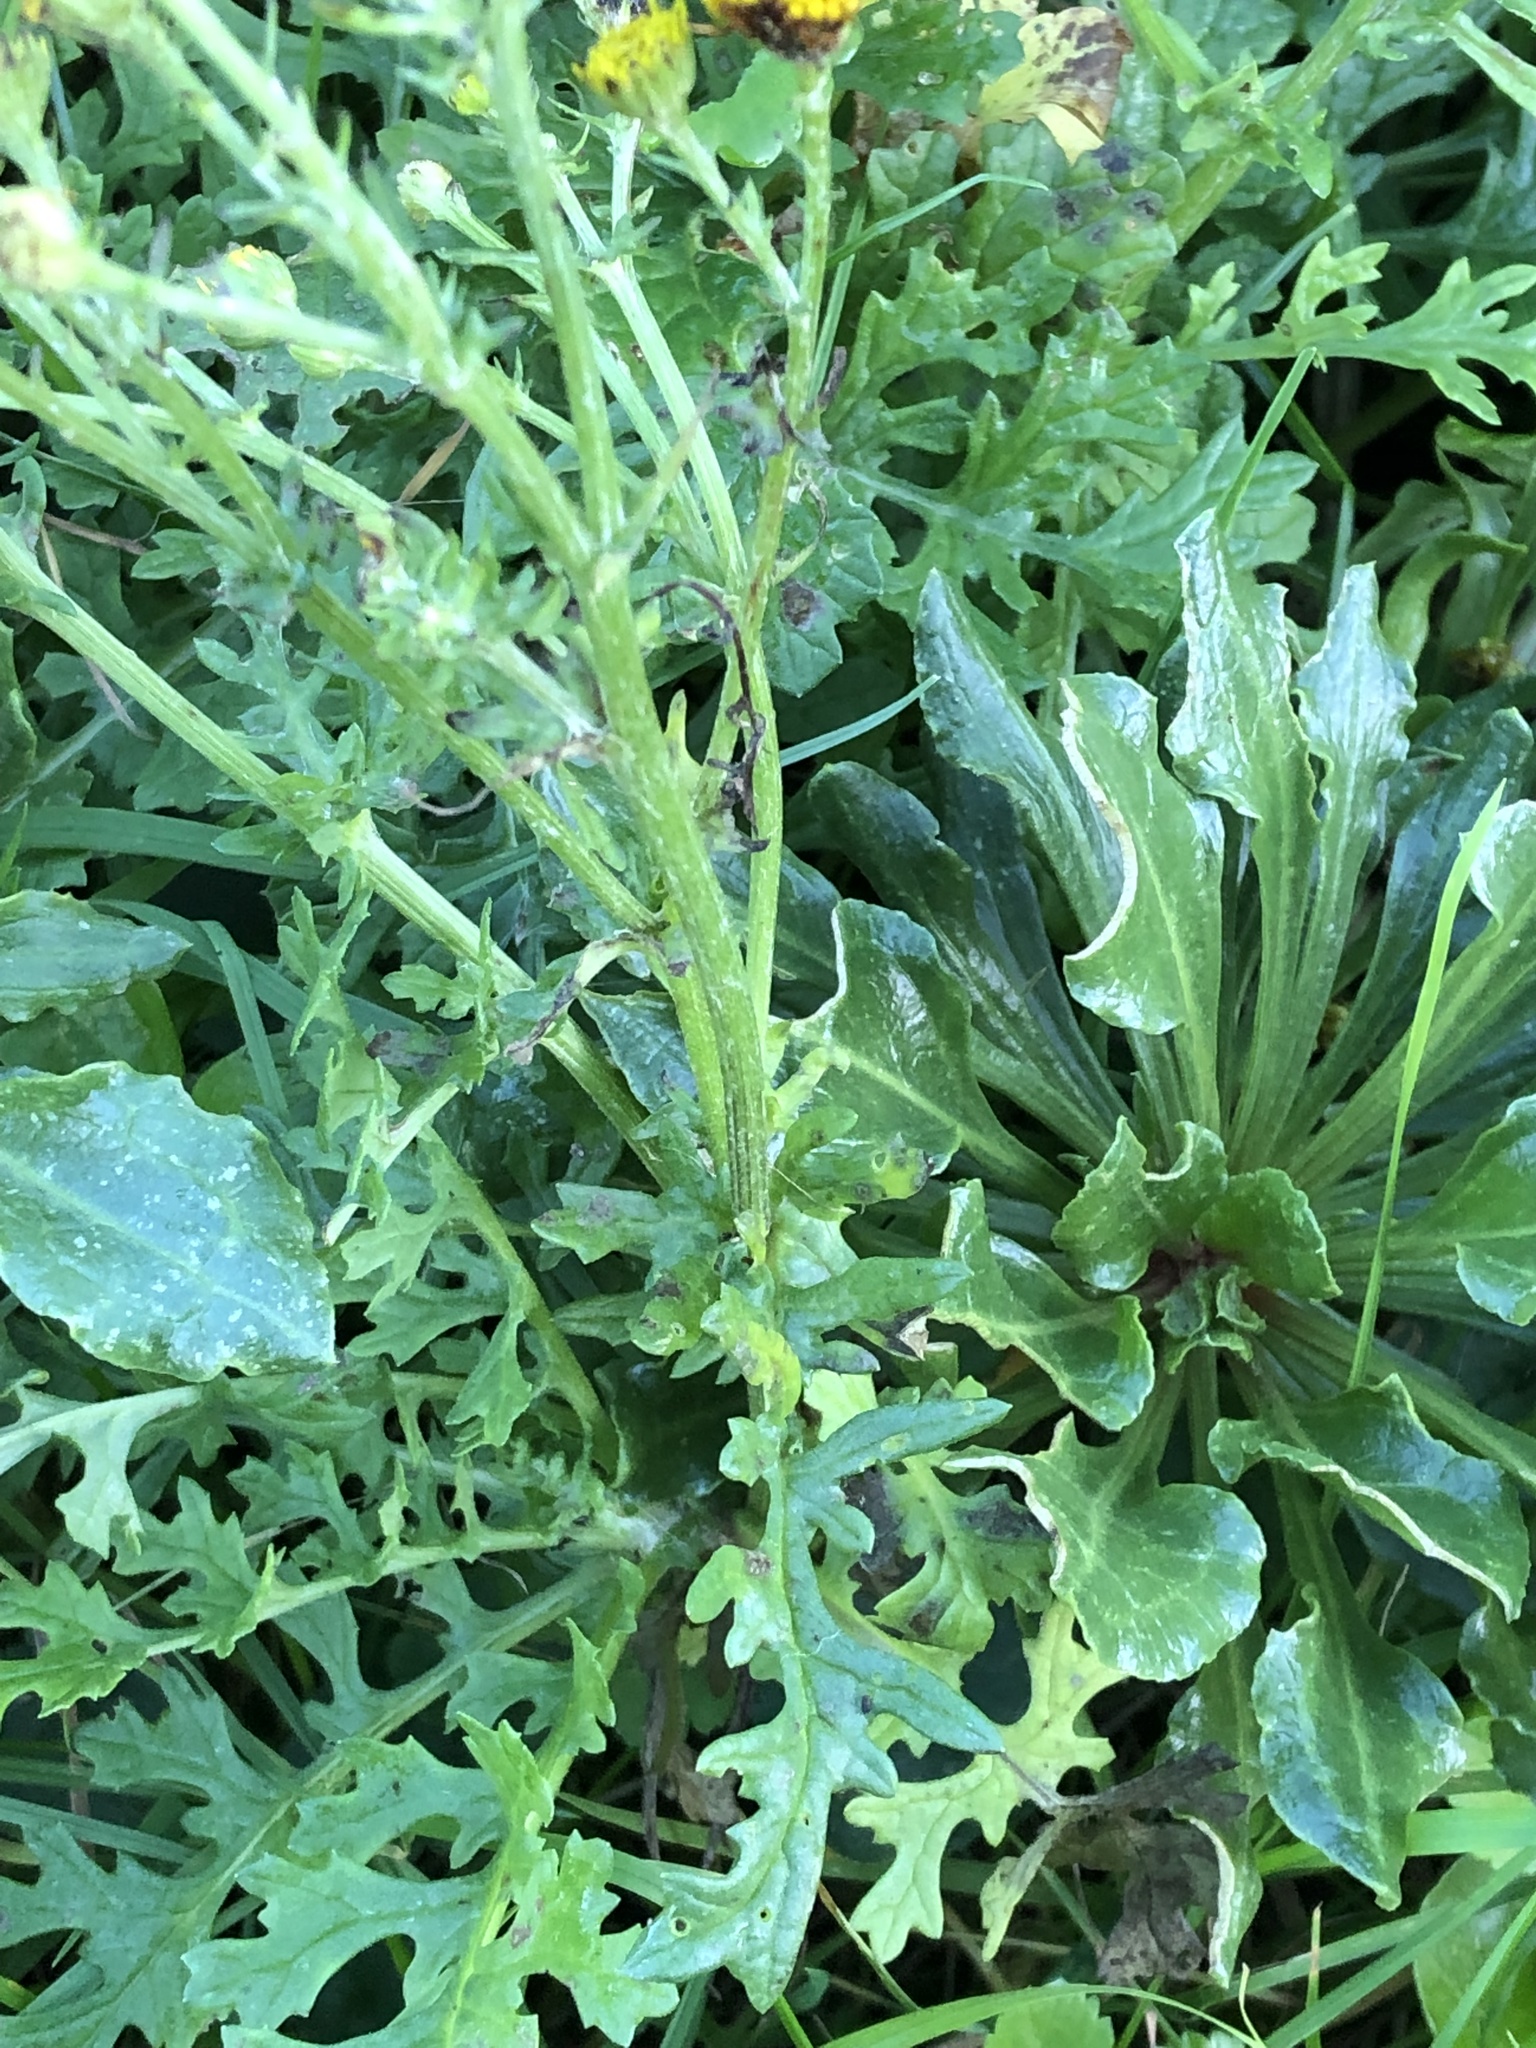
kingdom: Plantae
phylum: Tracheophyta
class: Magnoliopsida
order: Asterales
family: Asteraceae
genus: Jacobaea
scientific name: Jacobaea vulgaris
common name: Stinking willie
